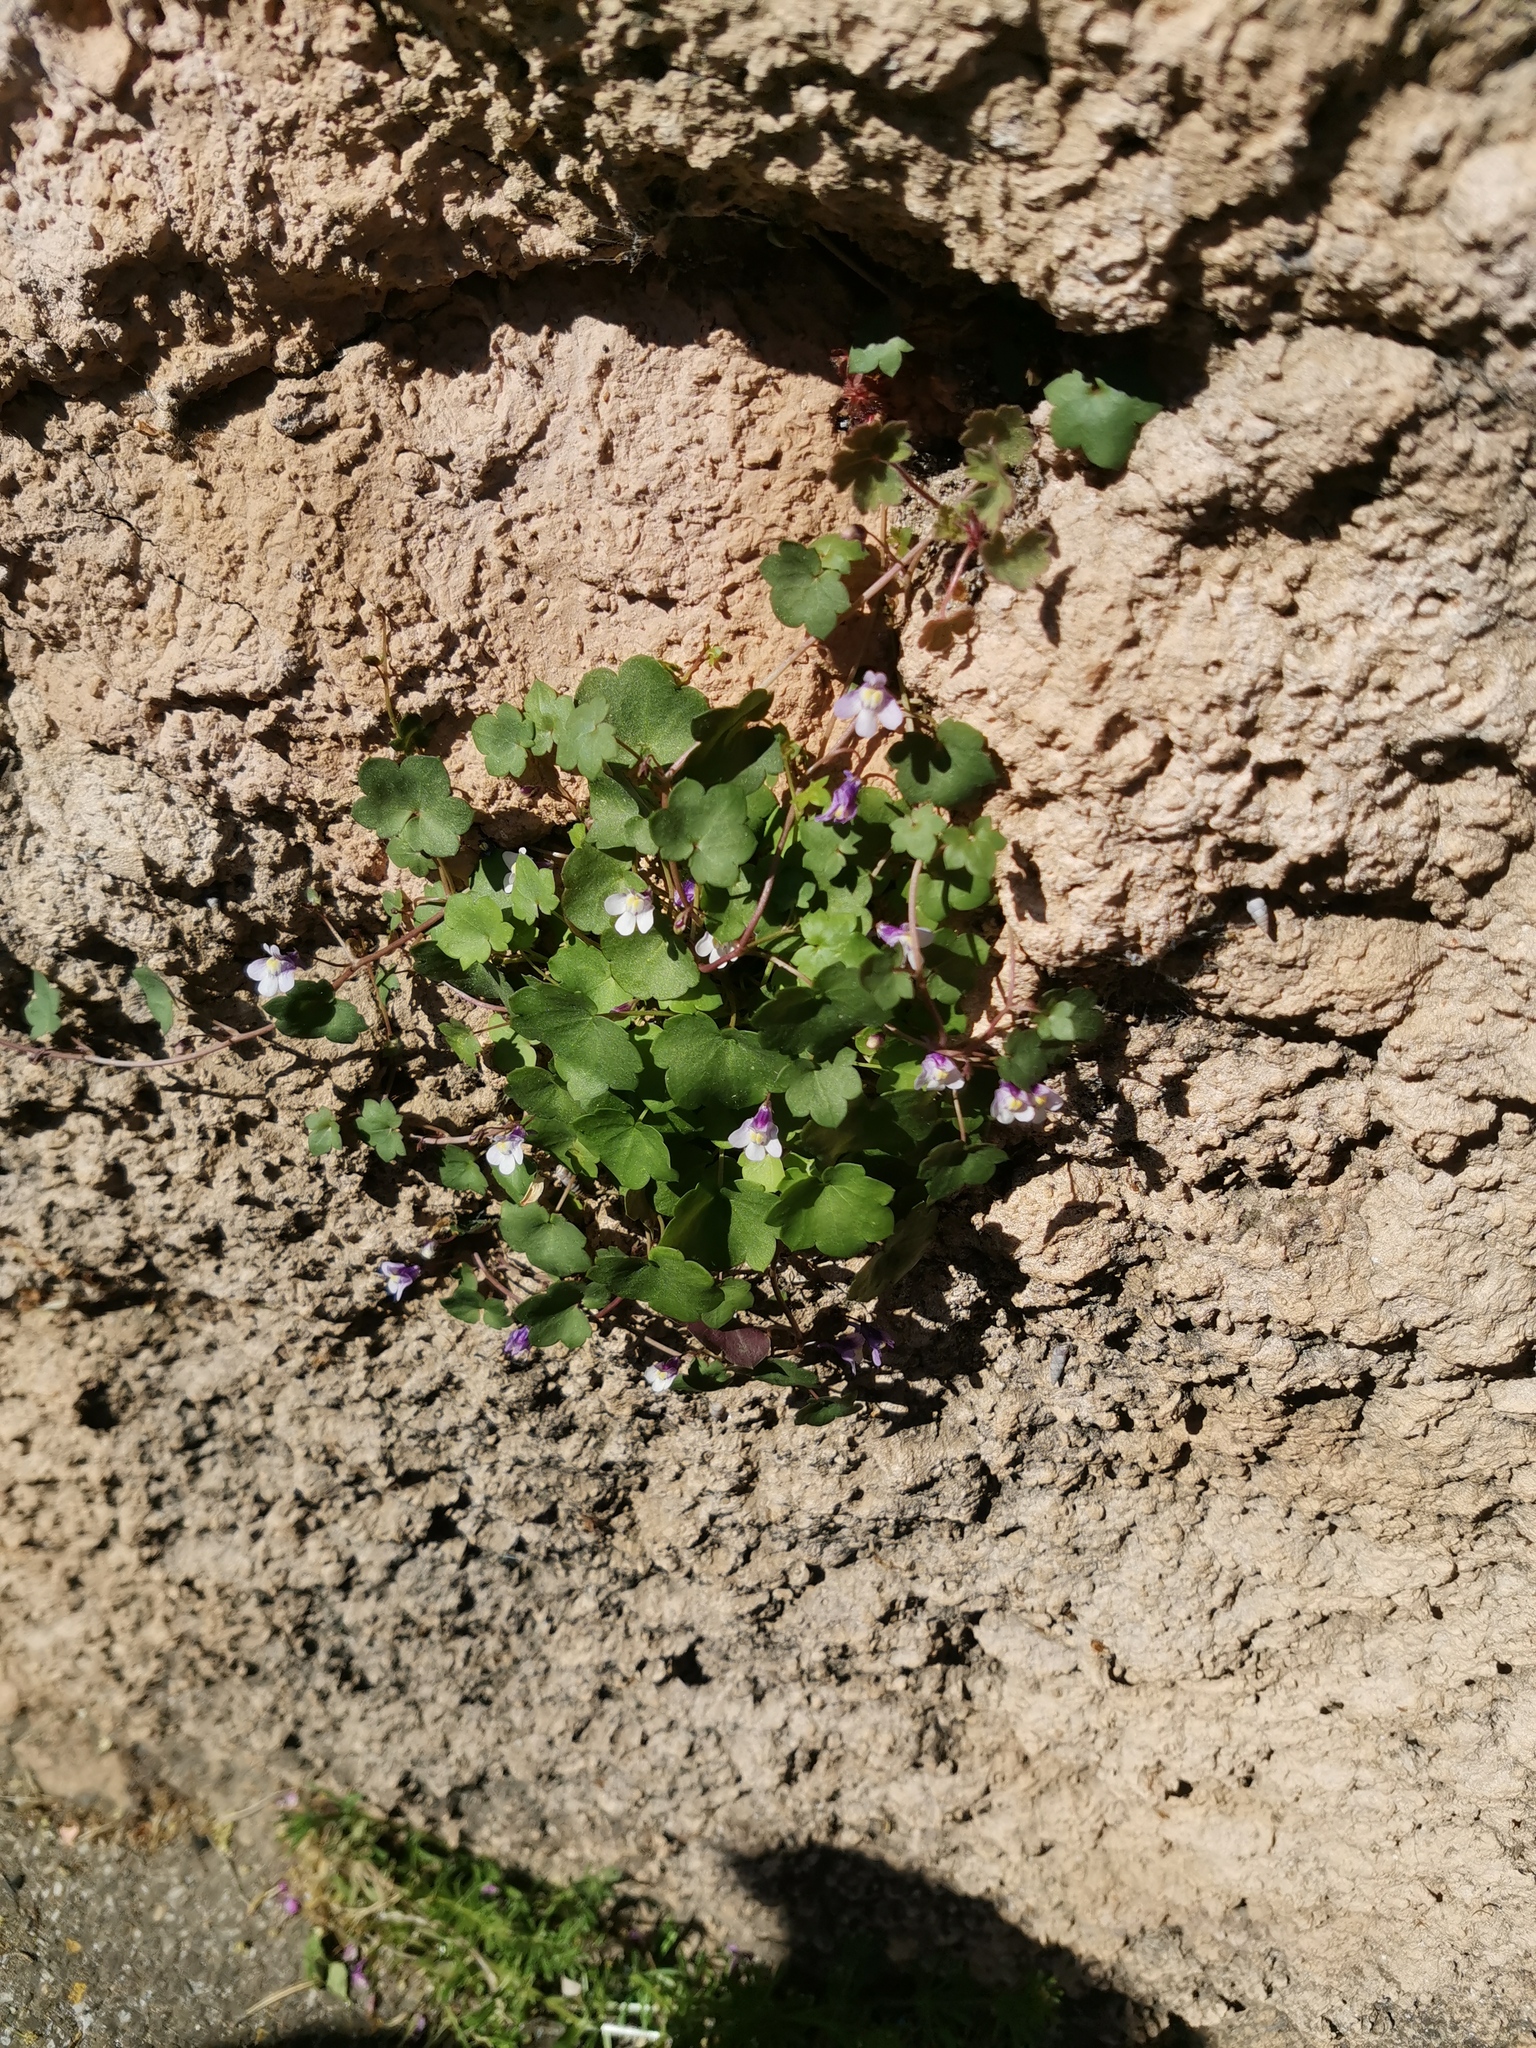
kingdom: Plantae
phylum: Tracheophyta
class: Magnoliopsida
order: Lamiales
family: Plantaginaceae
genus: Cymbalaria
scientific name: Cymbalaria muralis
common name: Ivy-leaved toadflax
